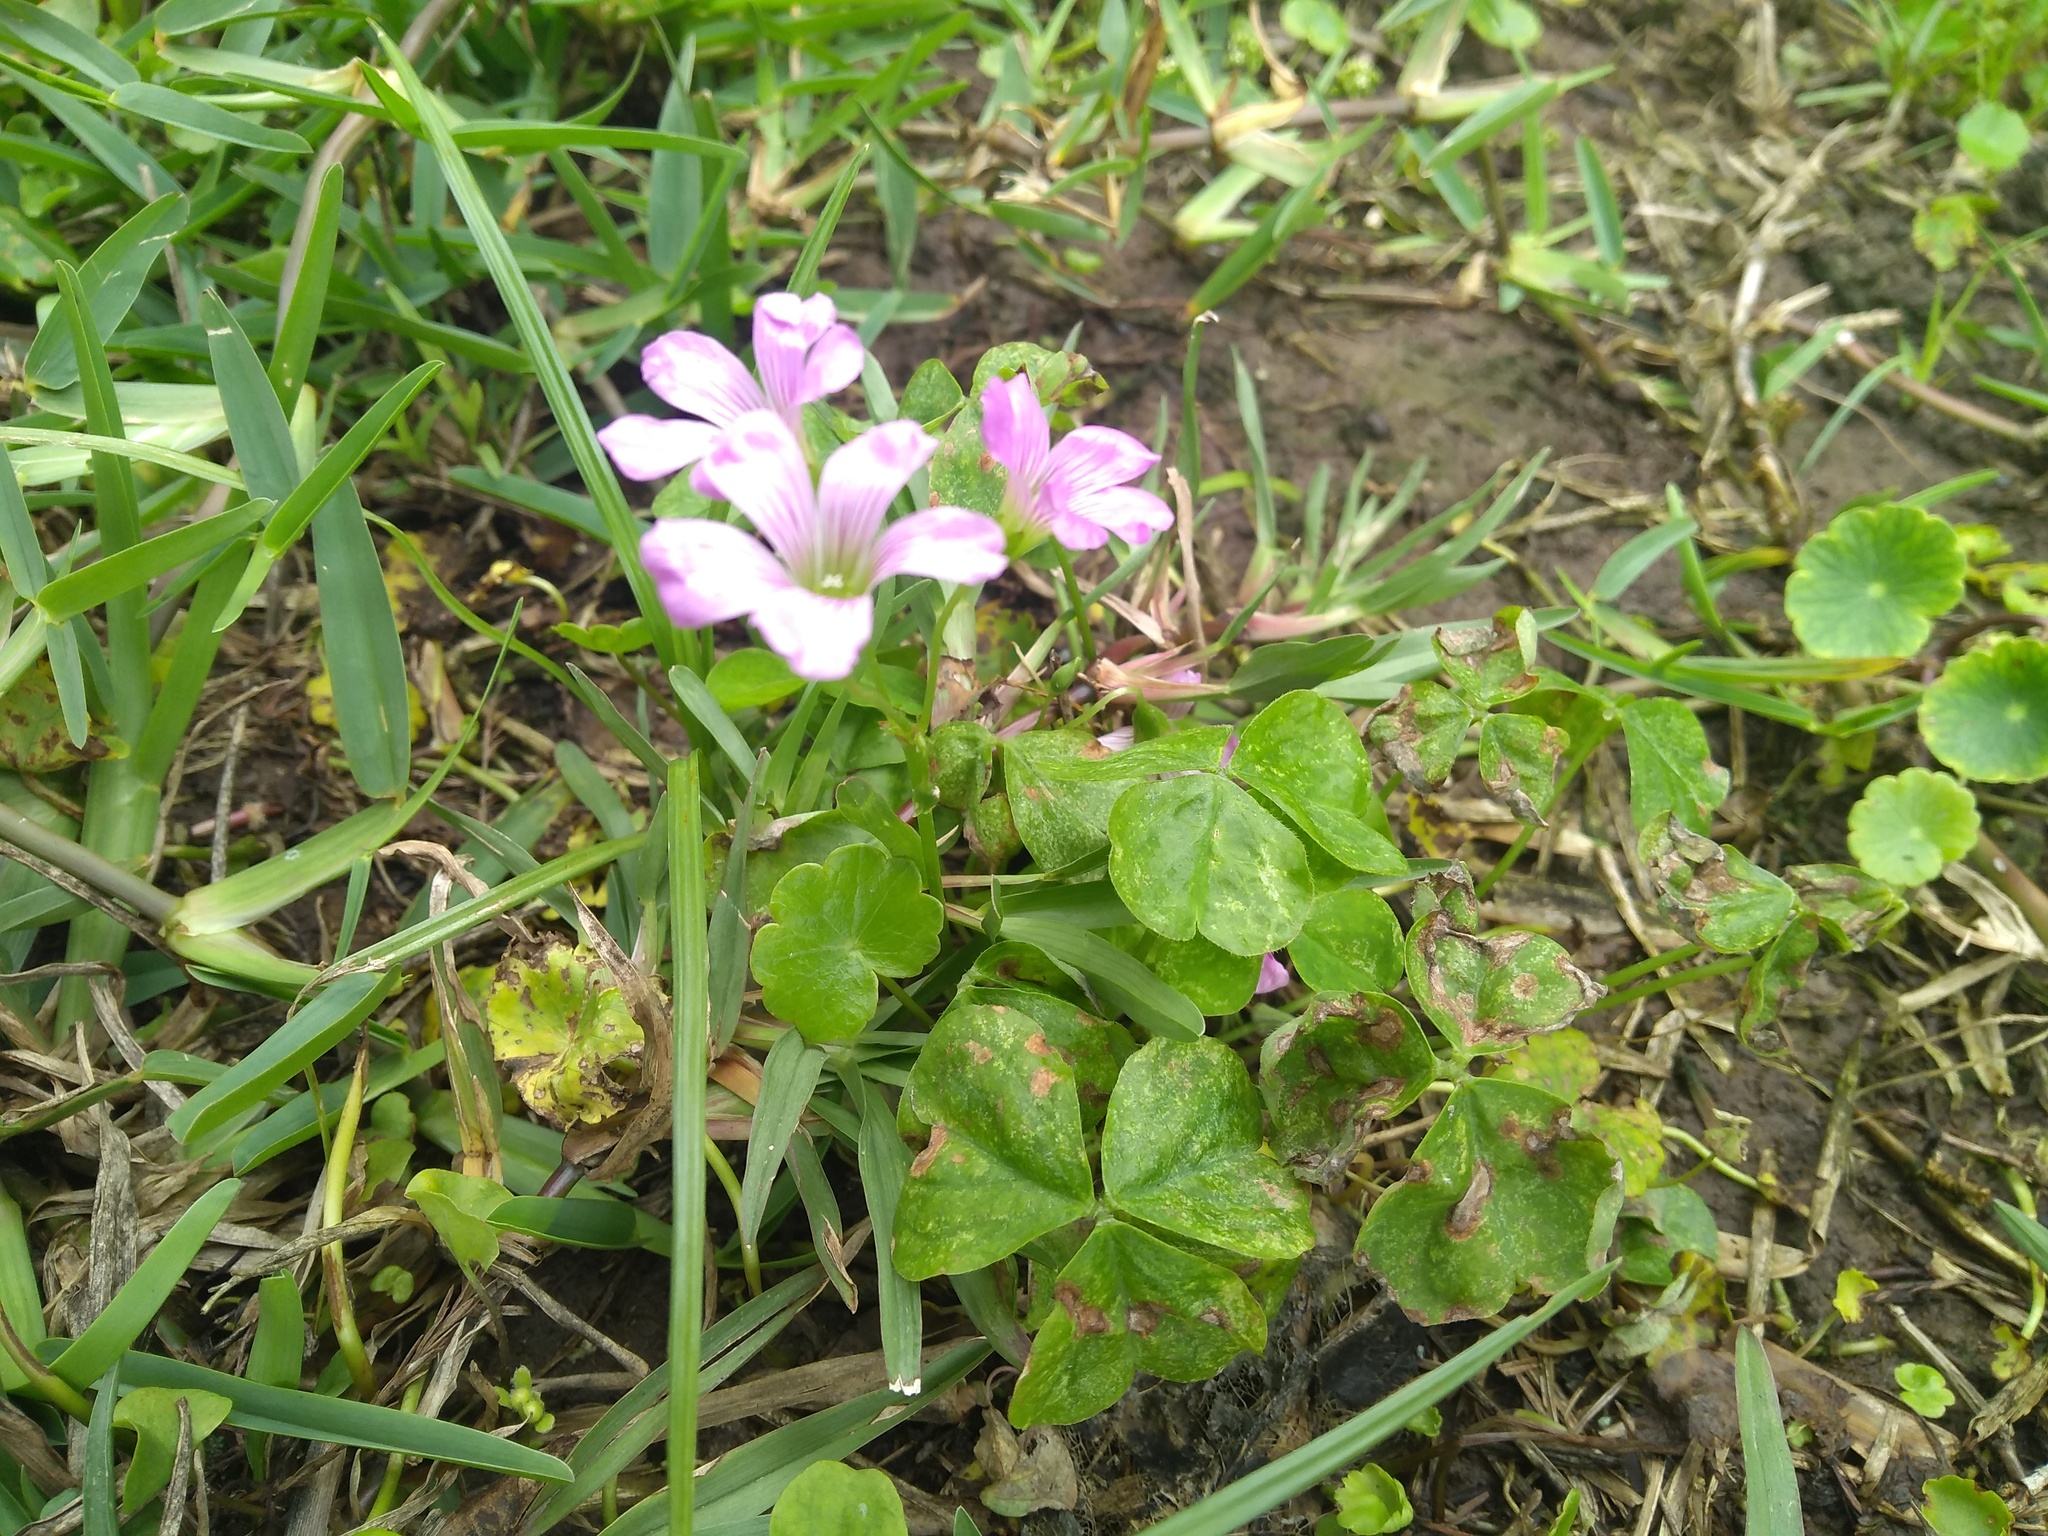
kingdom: Plantae
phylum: Tracheophyta
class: Magnoliopsida
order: Oxalidales
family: Oxalidaceae
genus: Oxalis
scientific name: Oxalis debilis
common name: Large-flowered pink-sorrel
